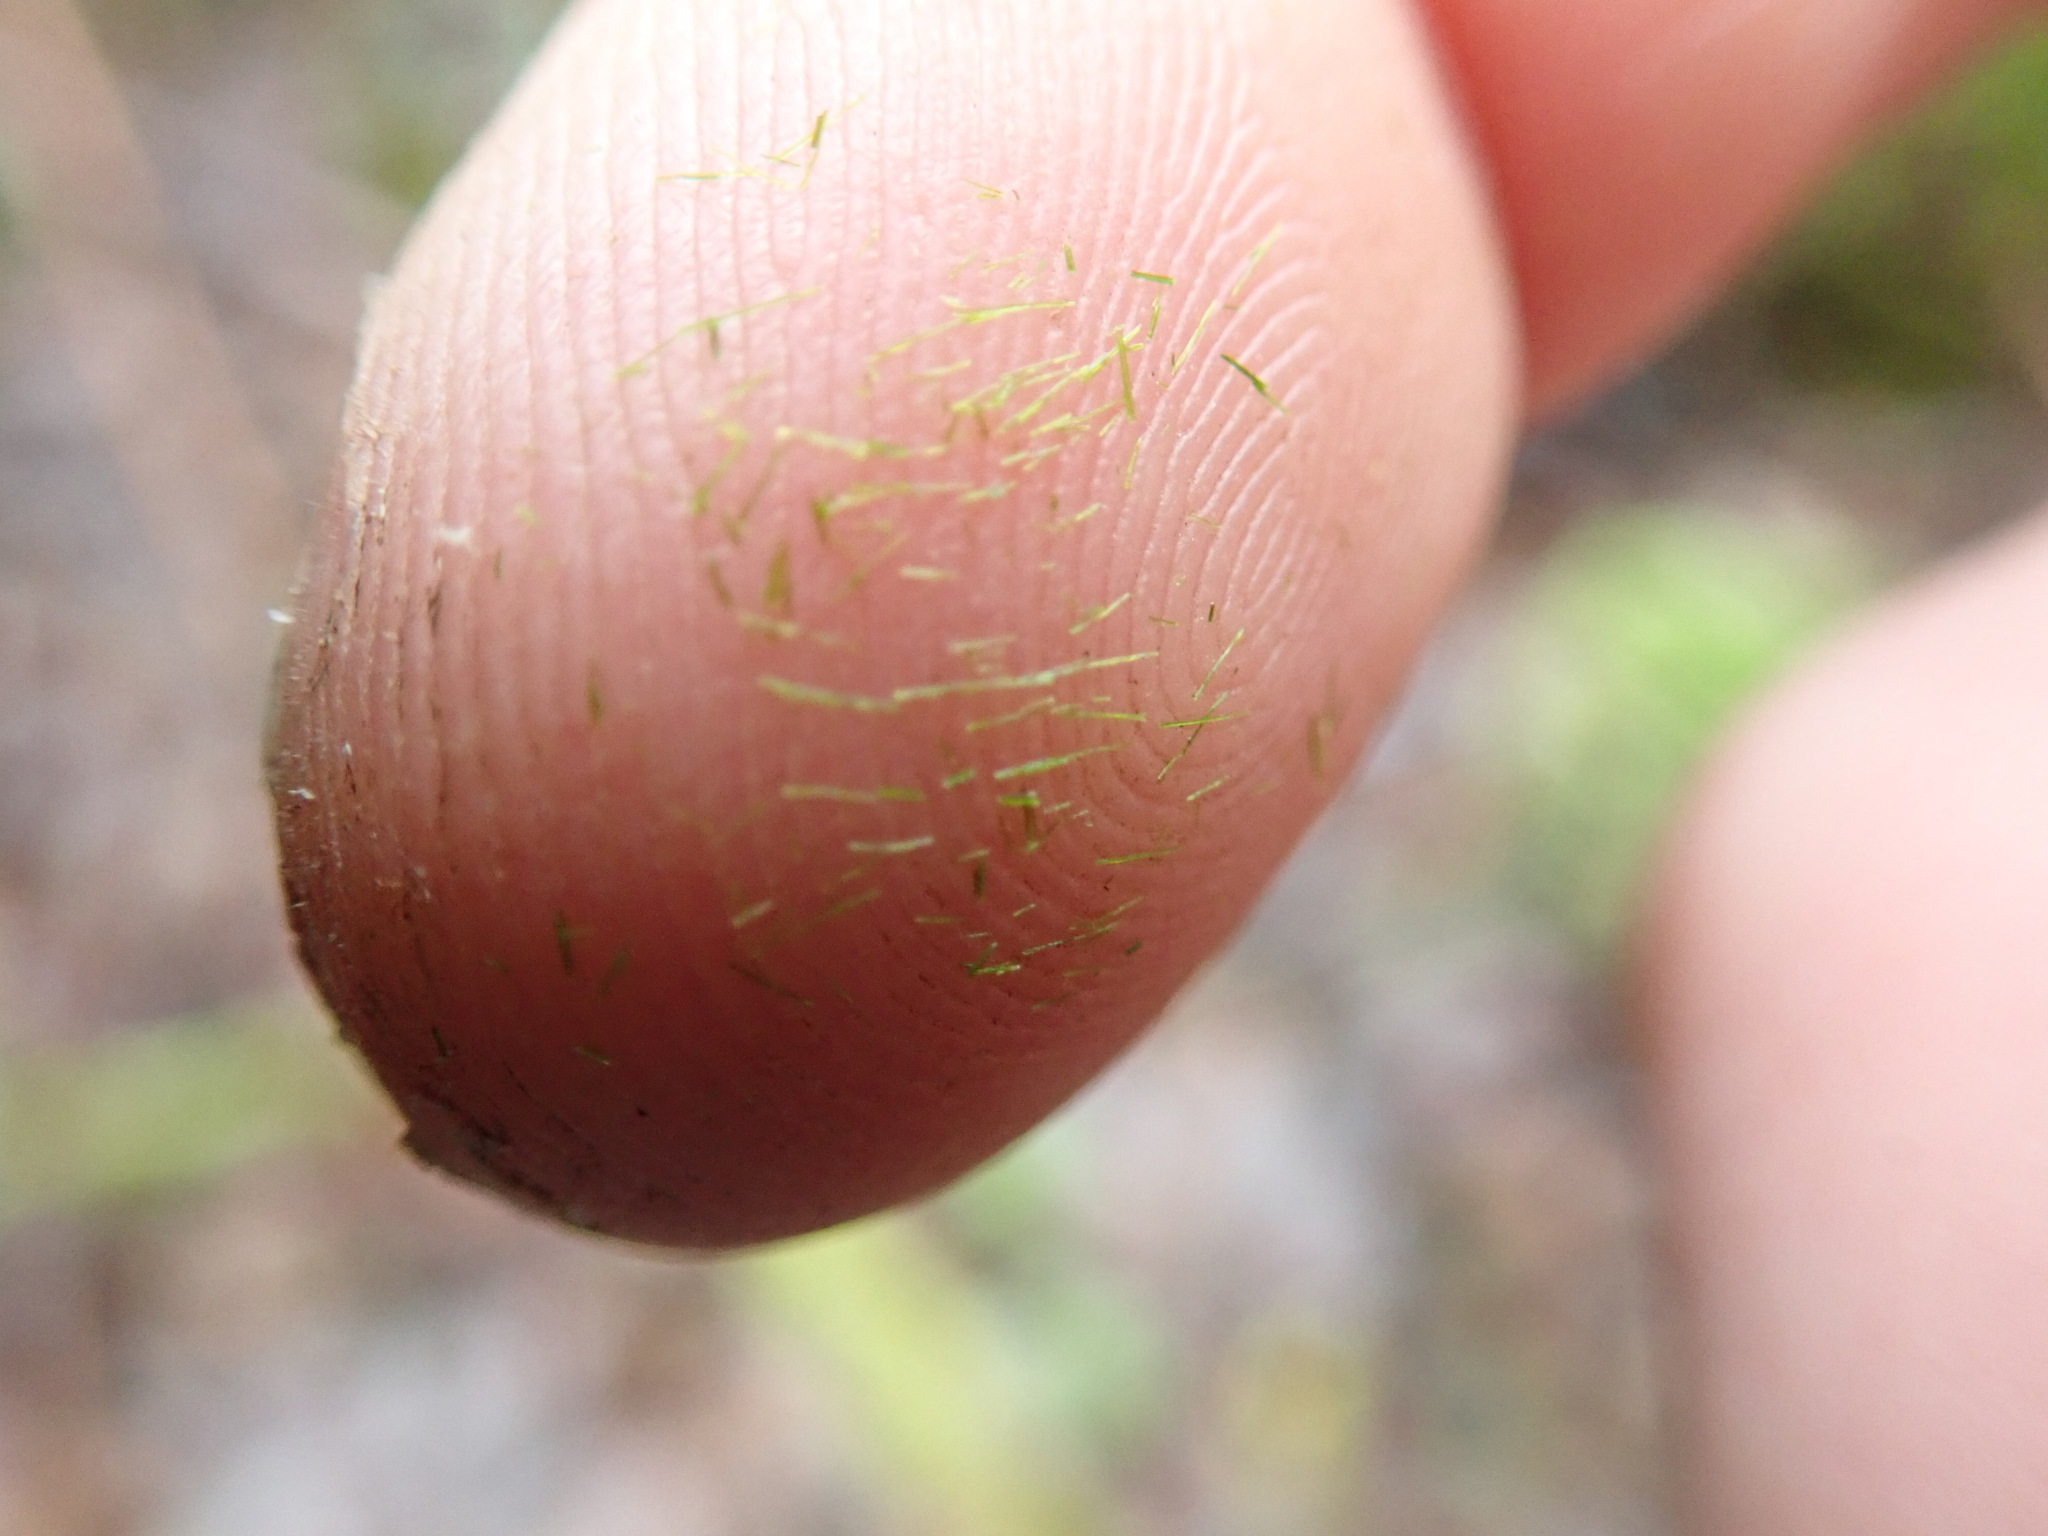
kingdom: Plantae
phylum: Bryophyta
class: Bryopsida
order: Dicranales
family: Dicranaceae
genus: Orthodicranum
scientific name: Orthodicranum tauricum
